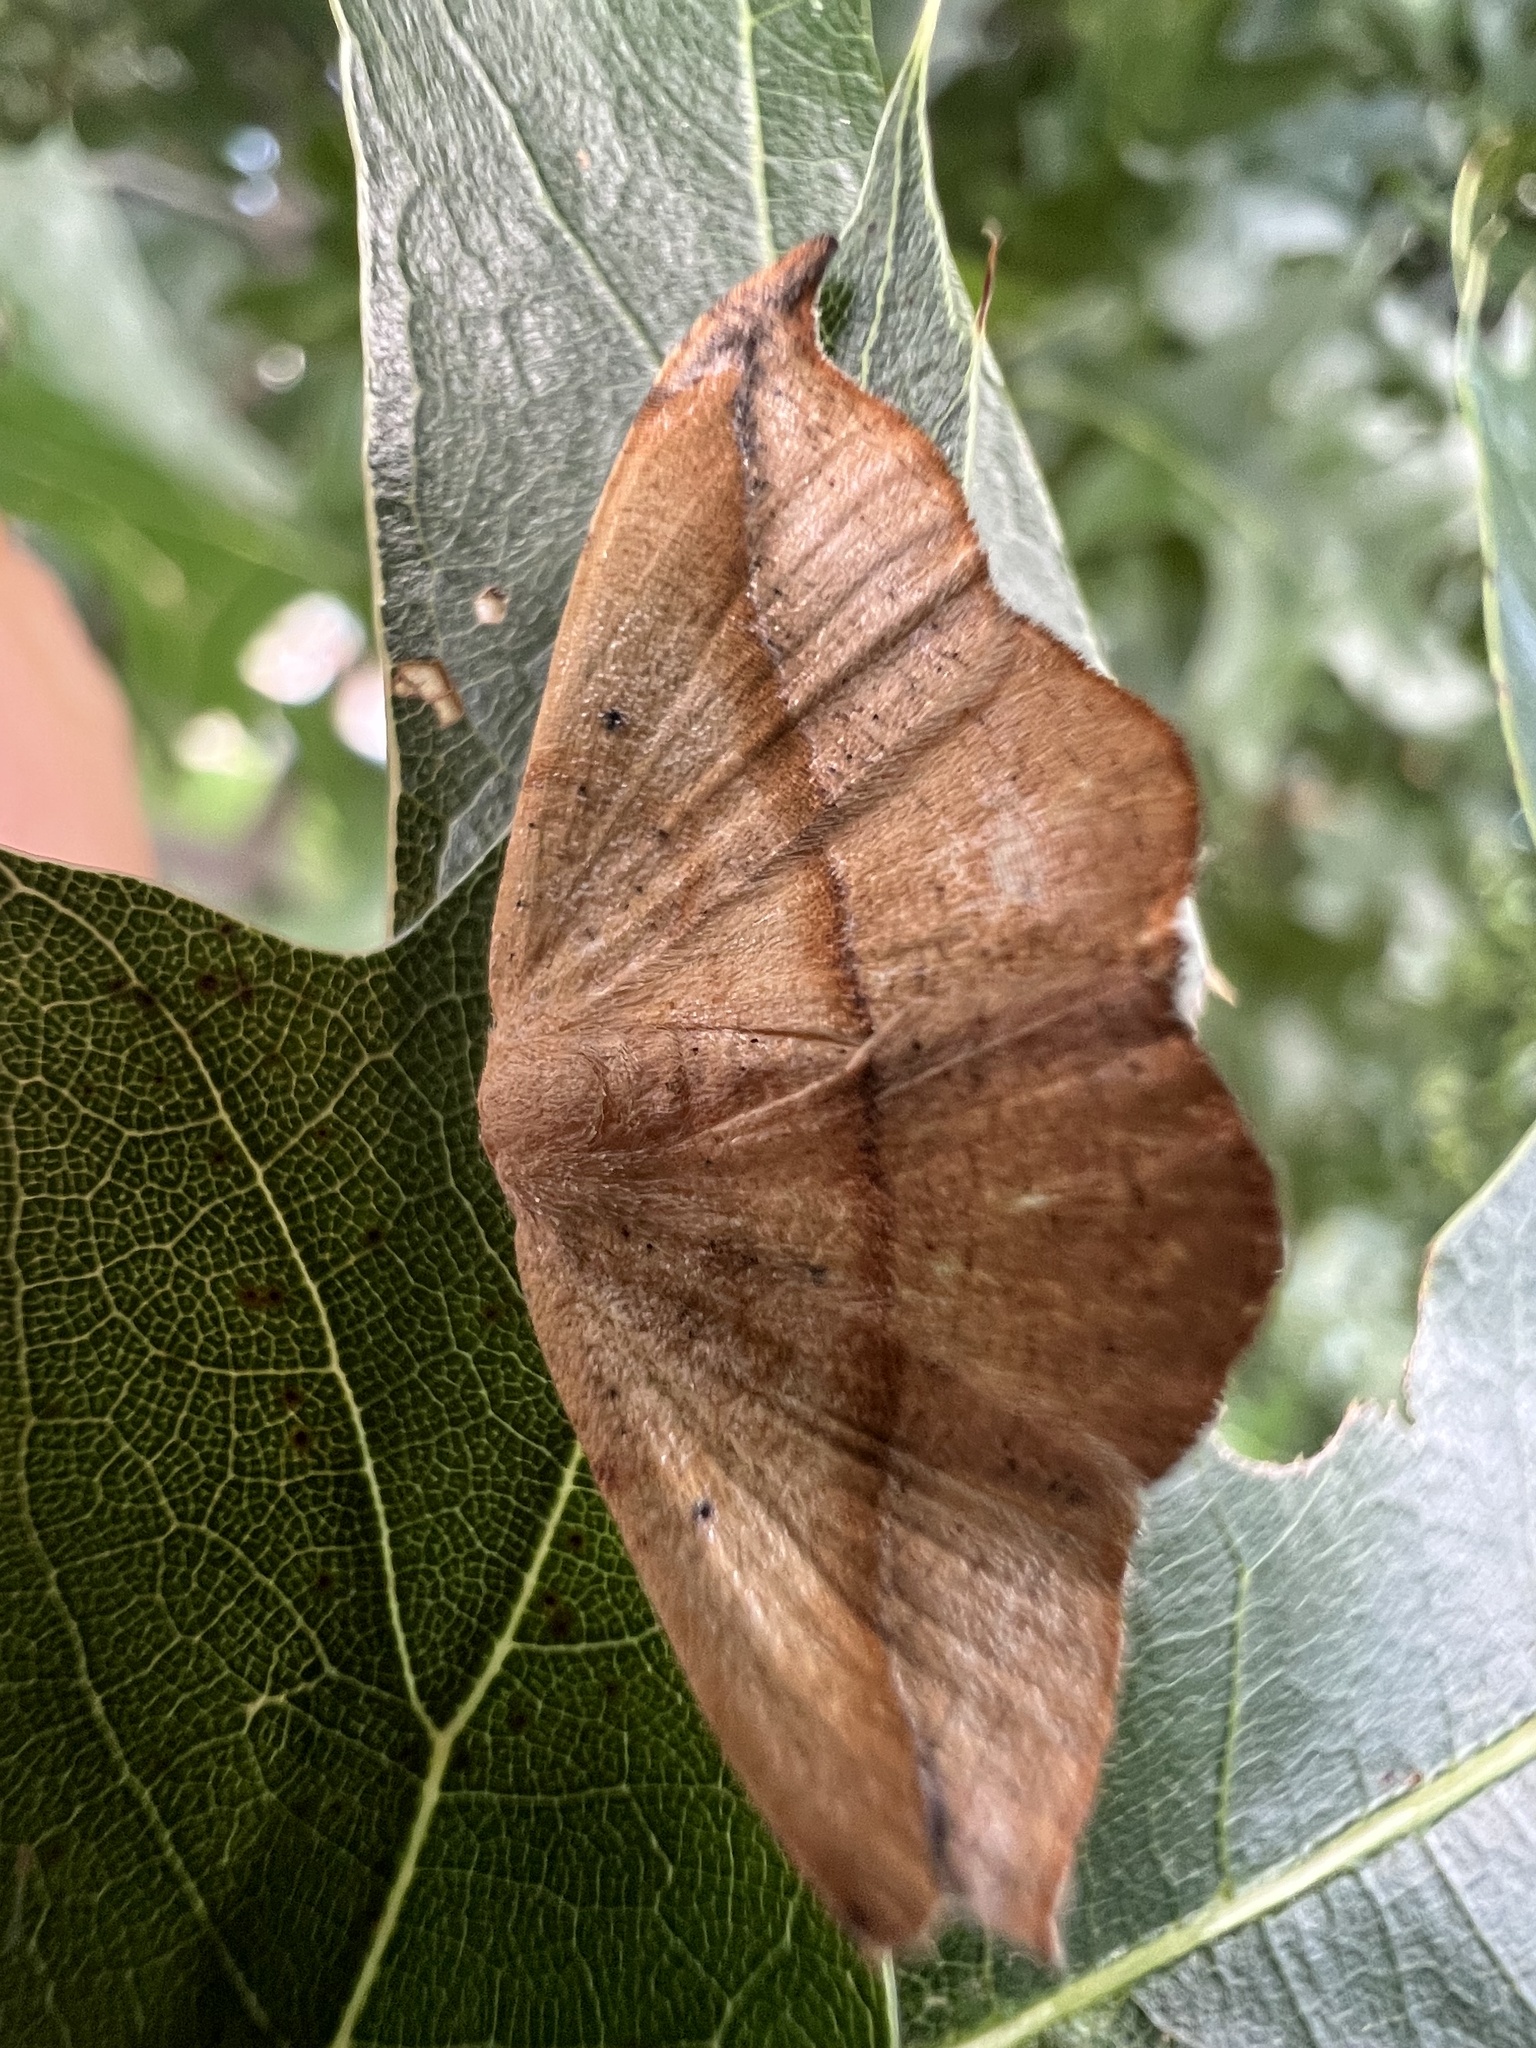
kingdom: Animalia
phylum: Arthropoda
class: Insecta
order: Lepidoptera
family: Geometridae
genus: Patalene
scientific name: Patalene olyzonaria
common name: Juniper geometer moth
